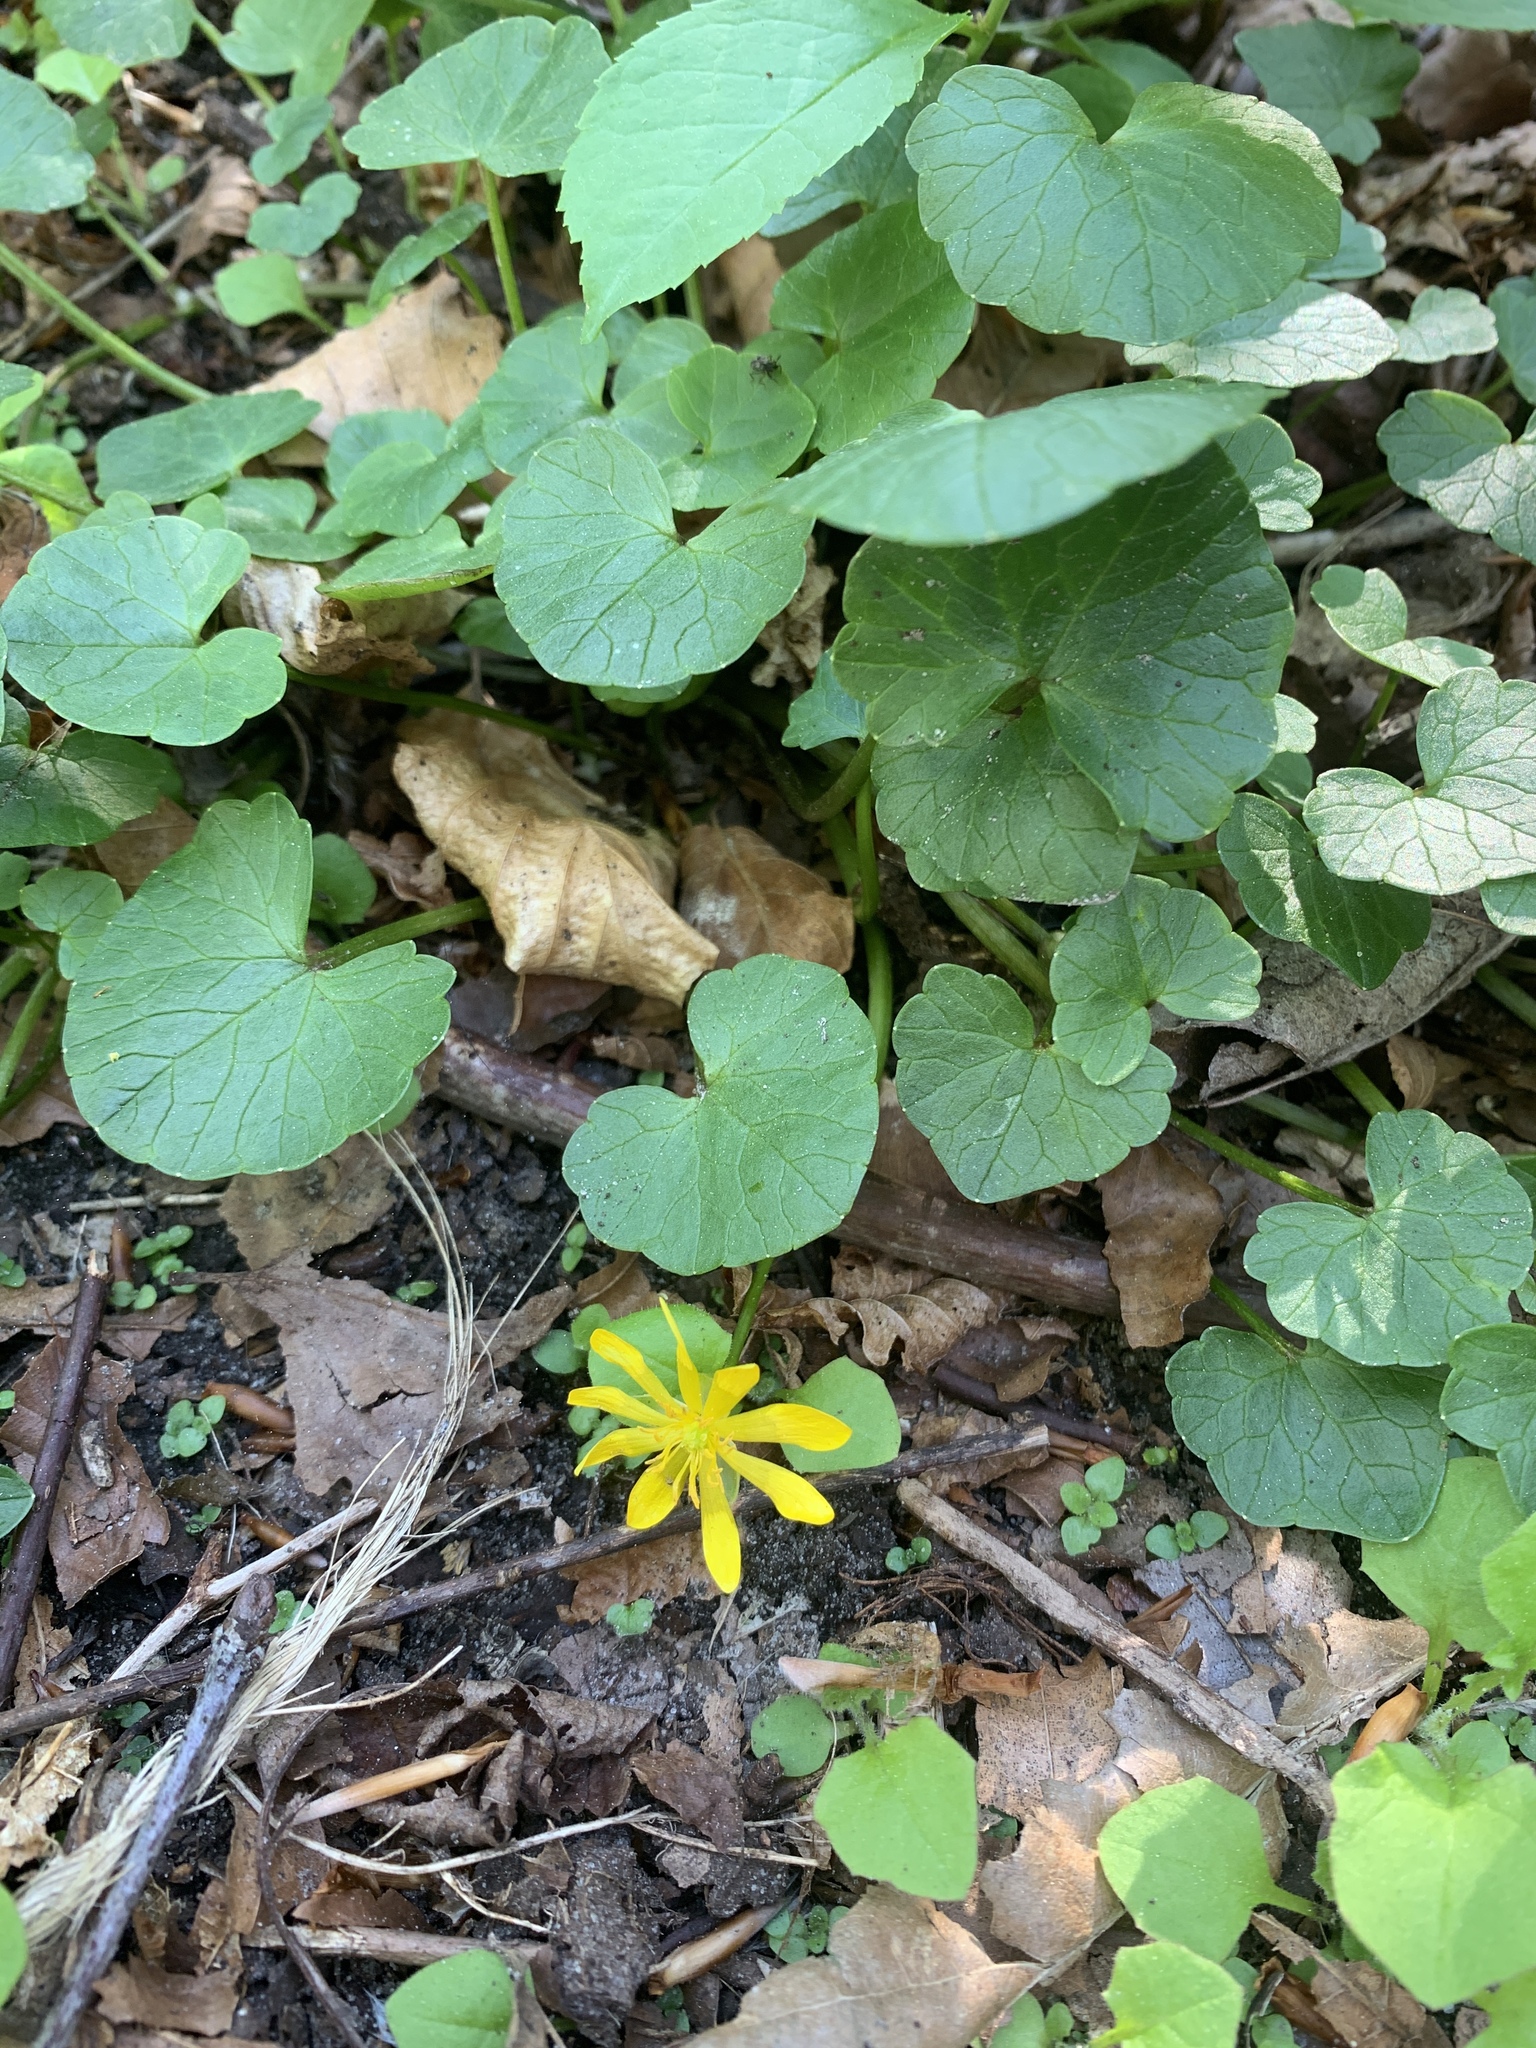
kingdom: Plantae
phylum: Tracheophyta
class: Magnoliopsida
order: Ranunculales
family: Ranunculaceae
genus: Ficaria
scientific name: Ficaria verna
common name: Lesser celandine
